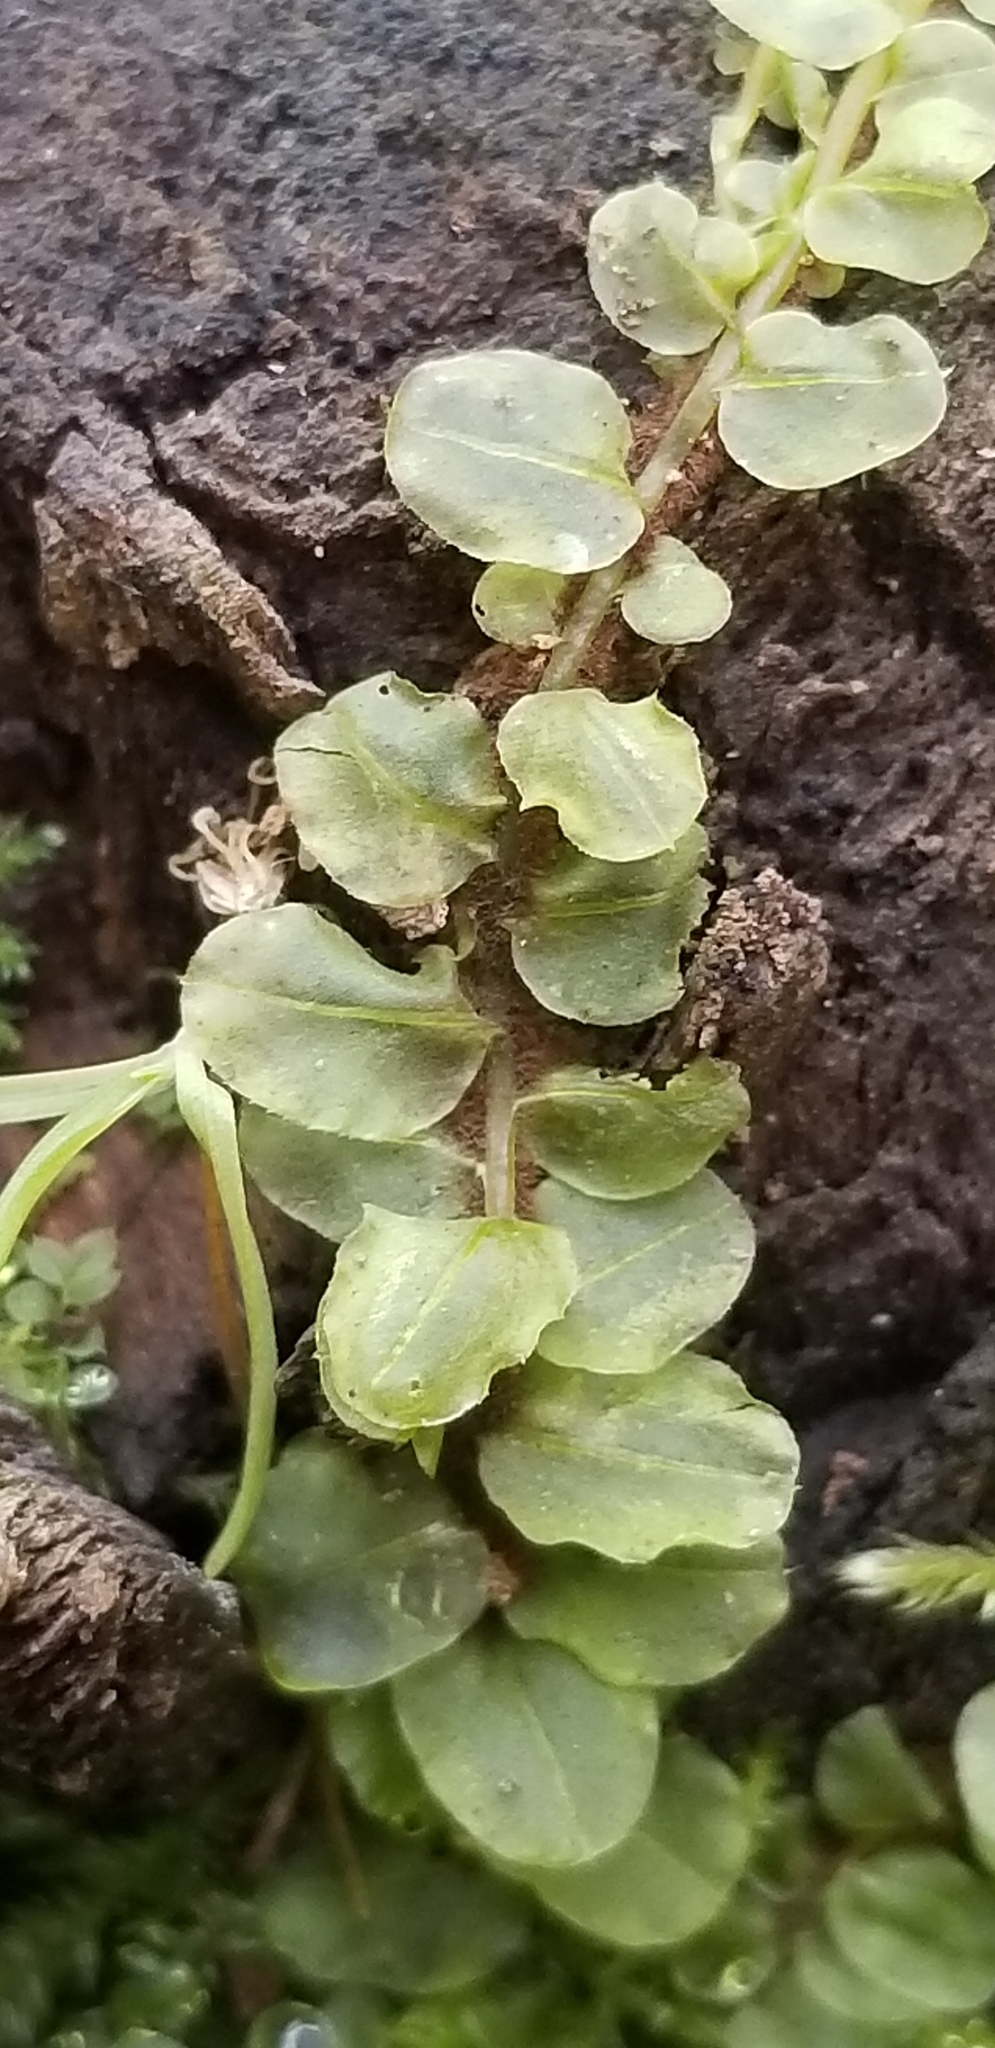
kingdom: Plantae
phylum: Bryophyta
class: Bryopsida
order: Bryales
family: Mniaceae
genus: Plagiomnium
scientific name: Plagiomnium ciliare
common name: Toothed leafy moss
